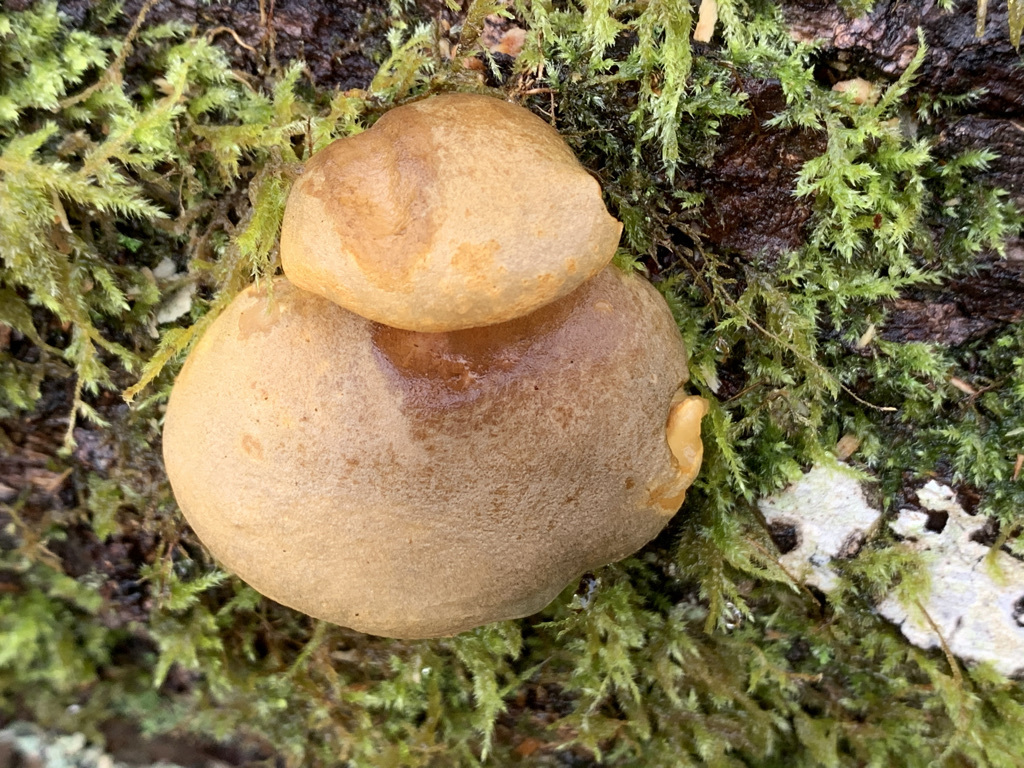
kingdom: Fungi
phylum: Basidiomycota
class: Agaricomycetes
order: Agaricales
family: Sarcomyxaceae
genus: Sarcomyxa
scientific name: Sarcomyxa serotina
